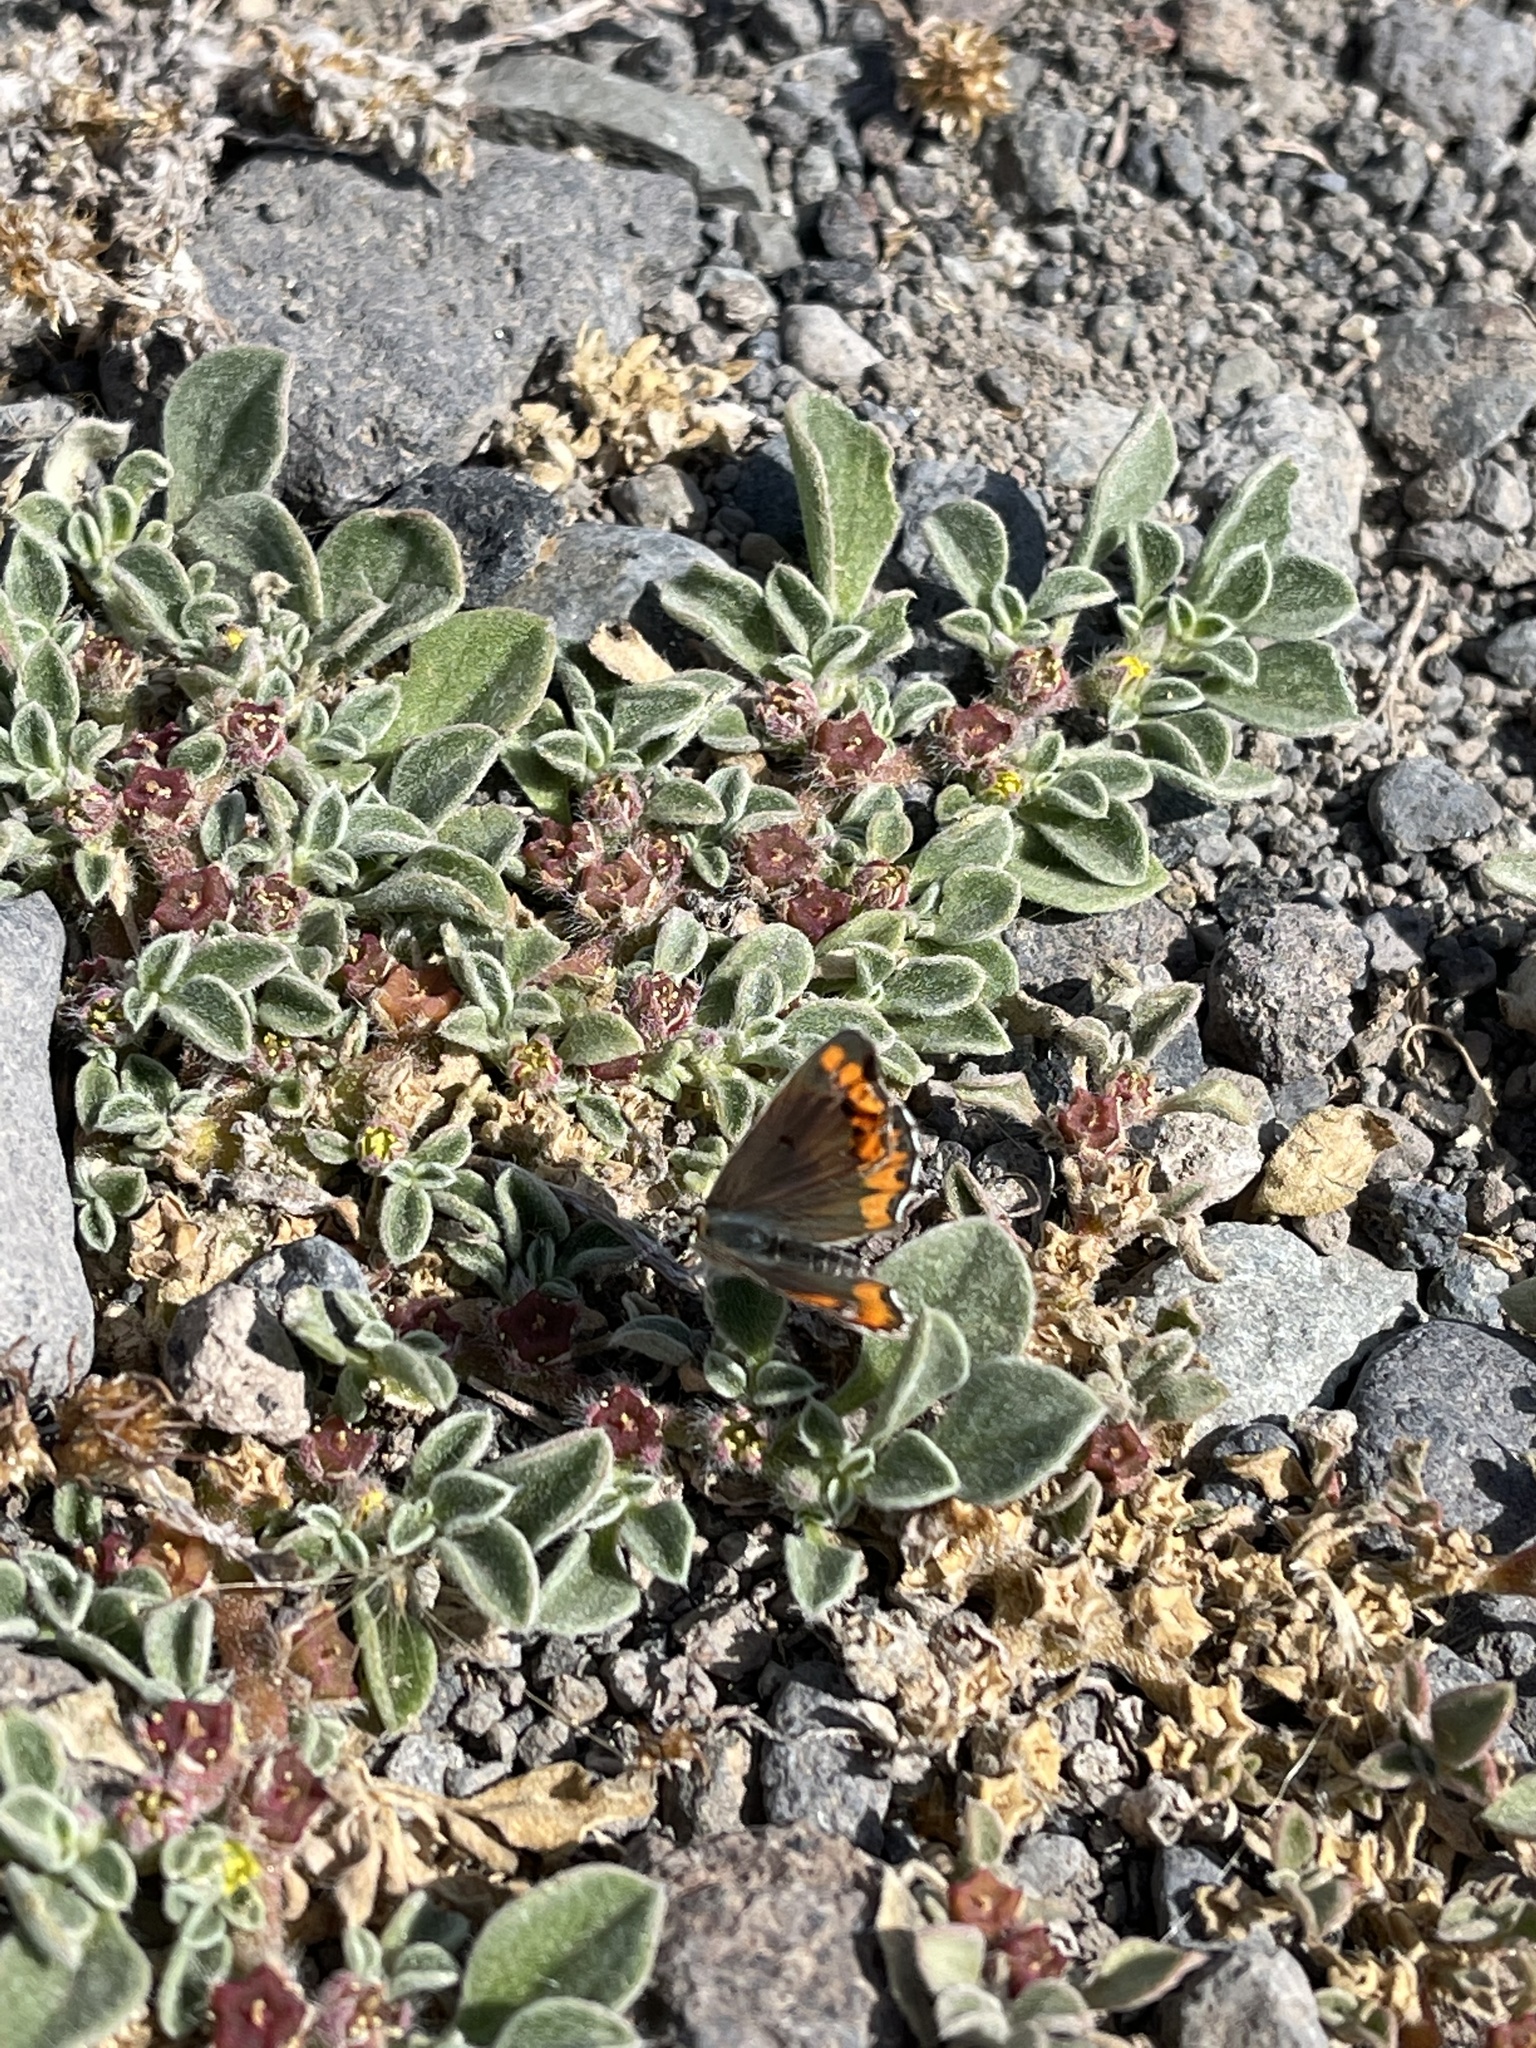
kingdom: Animalia
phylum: Arthropoda
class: Insecta
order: Lepidoptera
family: Lycaenidae
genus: Aricia
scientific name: Aricia cramera
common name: Eschscholtz´s brown  argus
